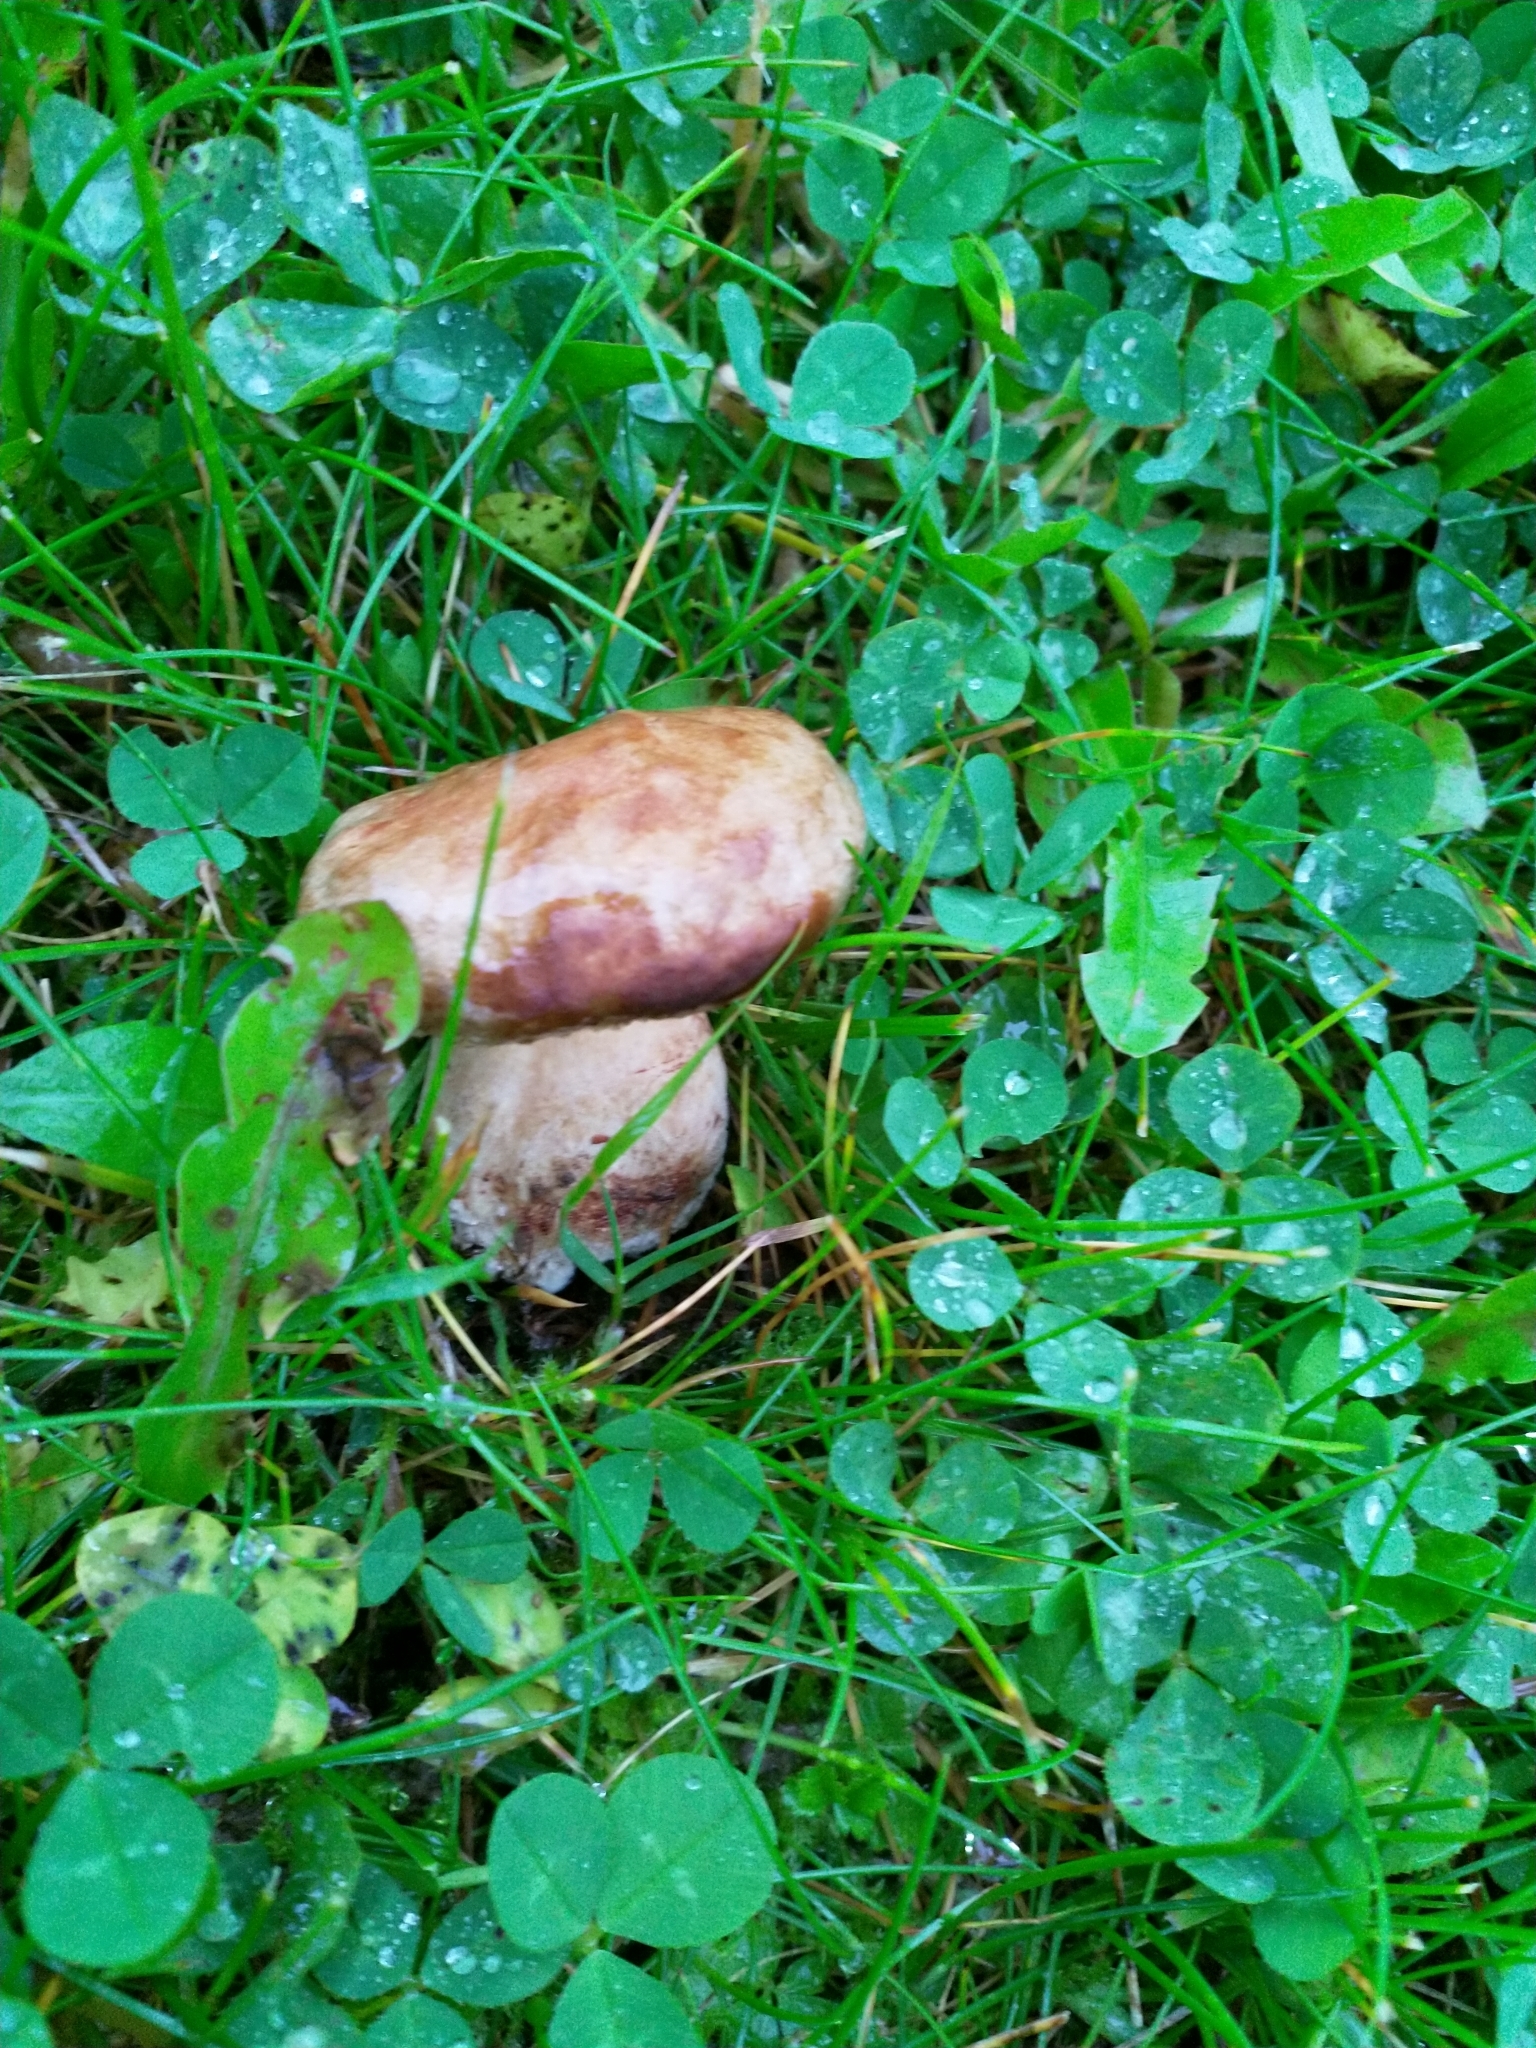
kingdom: Fungi
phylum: Basidiomycota
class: Agaricomycetes
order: Boletales
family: Paxillaceae
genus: Paxillus
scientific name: Paxillus involutus
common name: Brown roll rim
